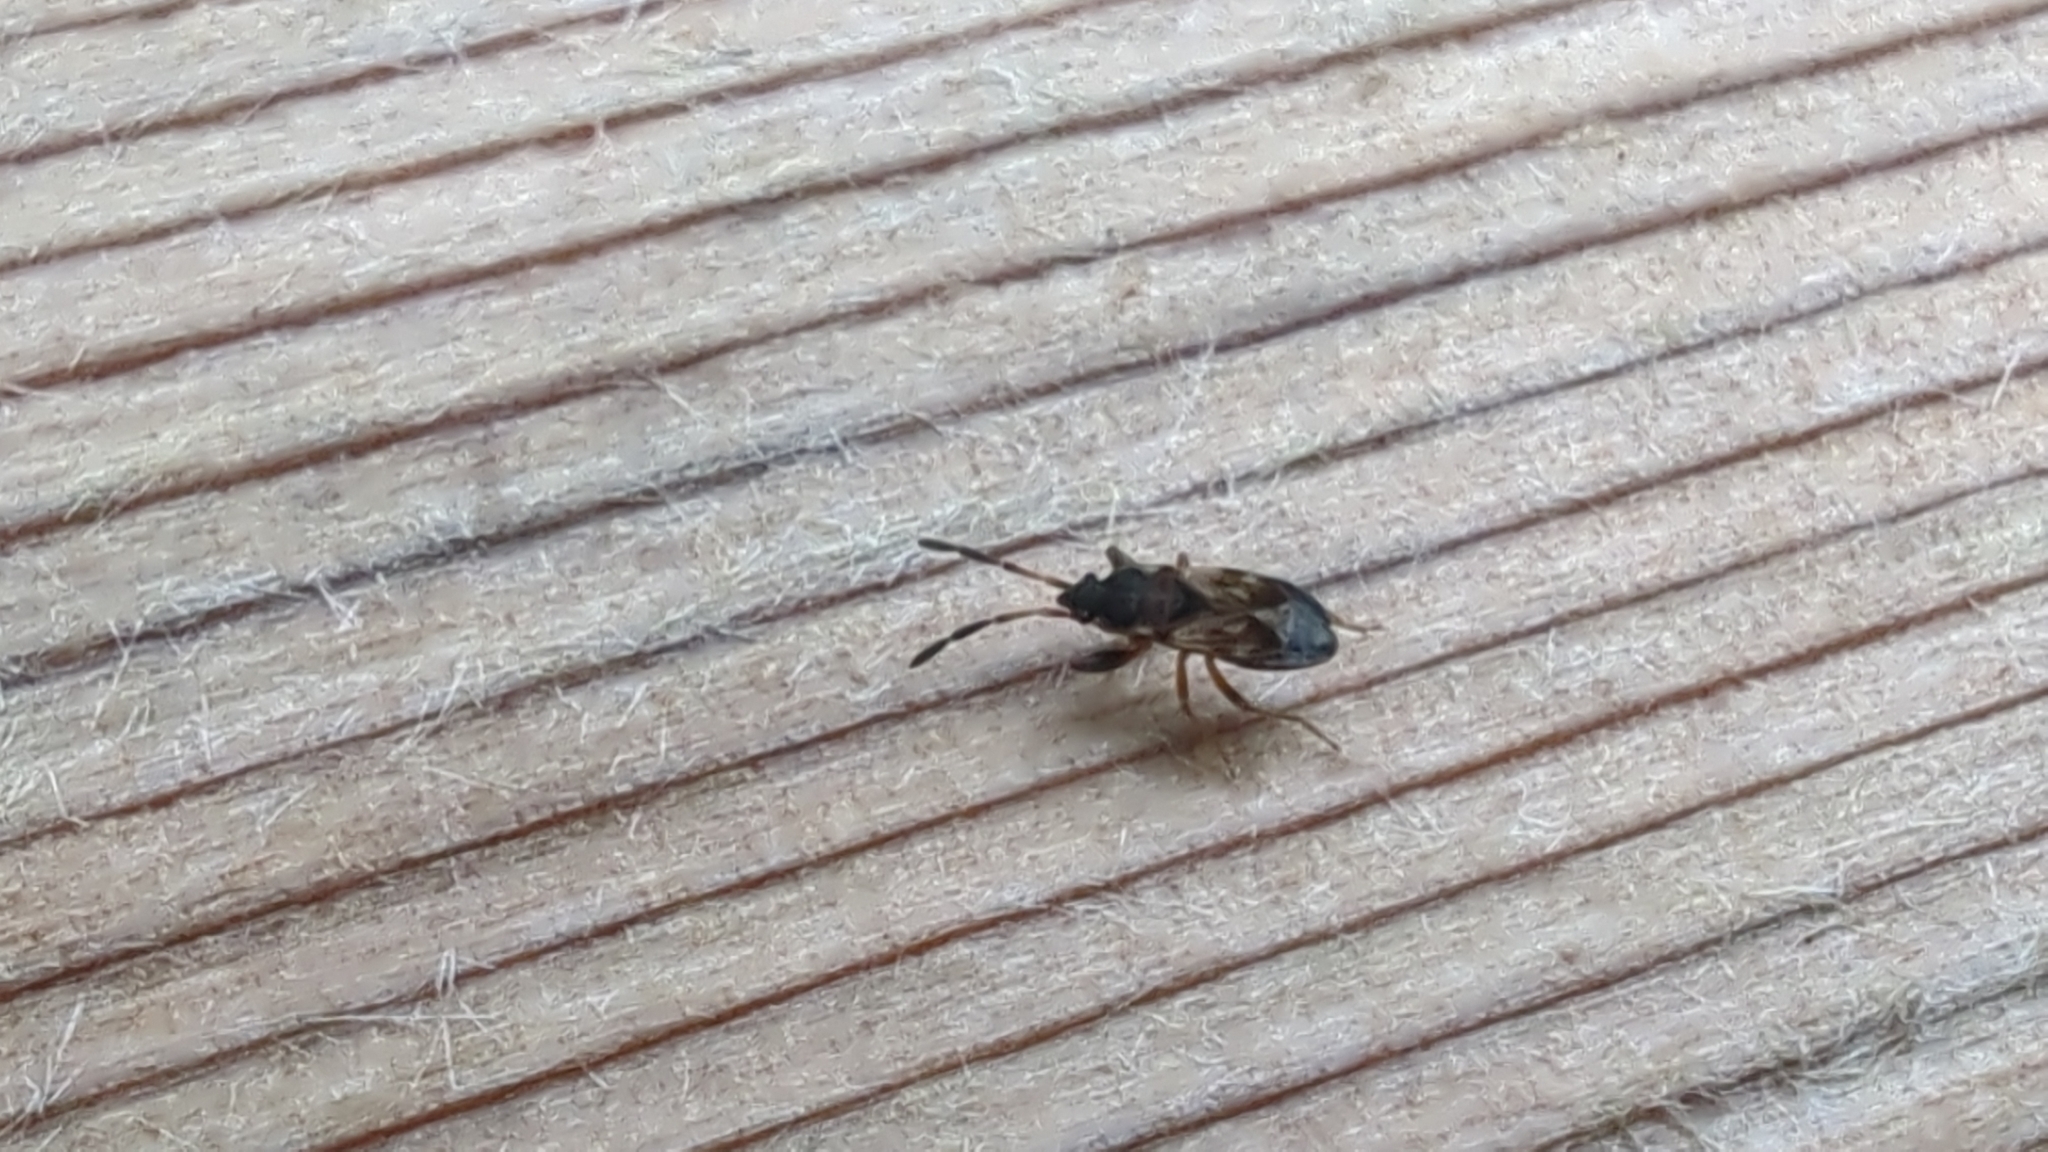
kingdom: Animalia
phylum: Arthropoda
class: Insecta
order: Hemiptera
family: Rhyparochromidae
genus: Scolopostethus
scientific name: Scolopostethus thomsoni
